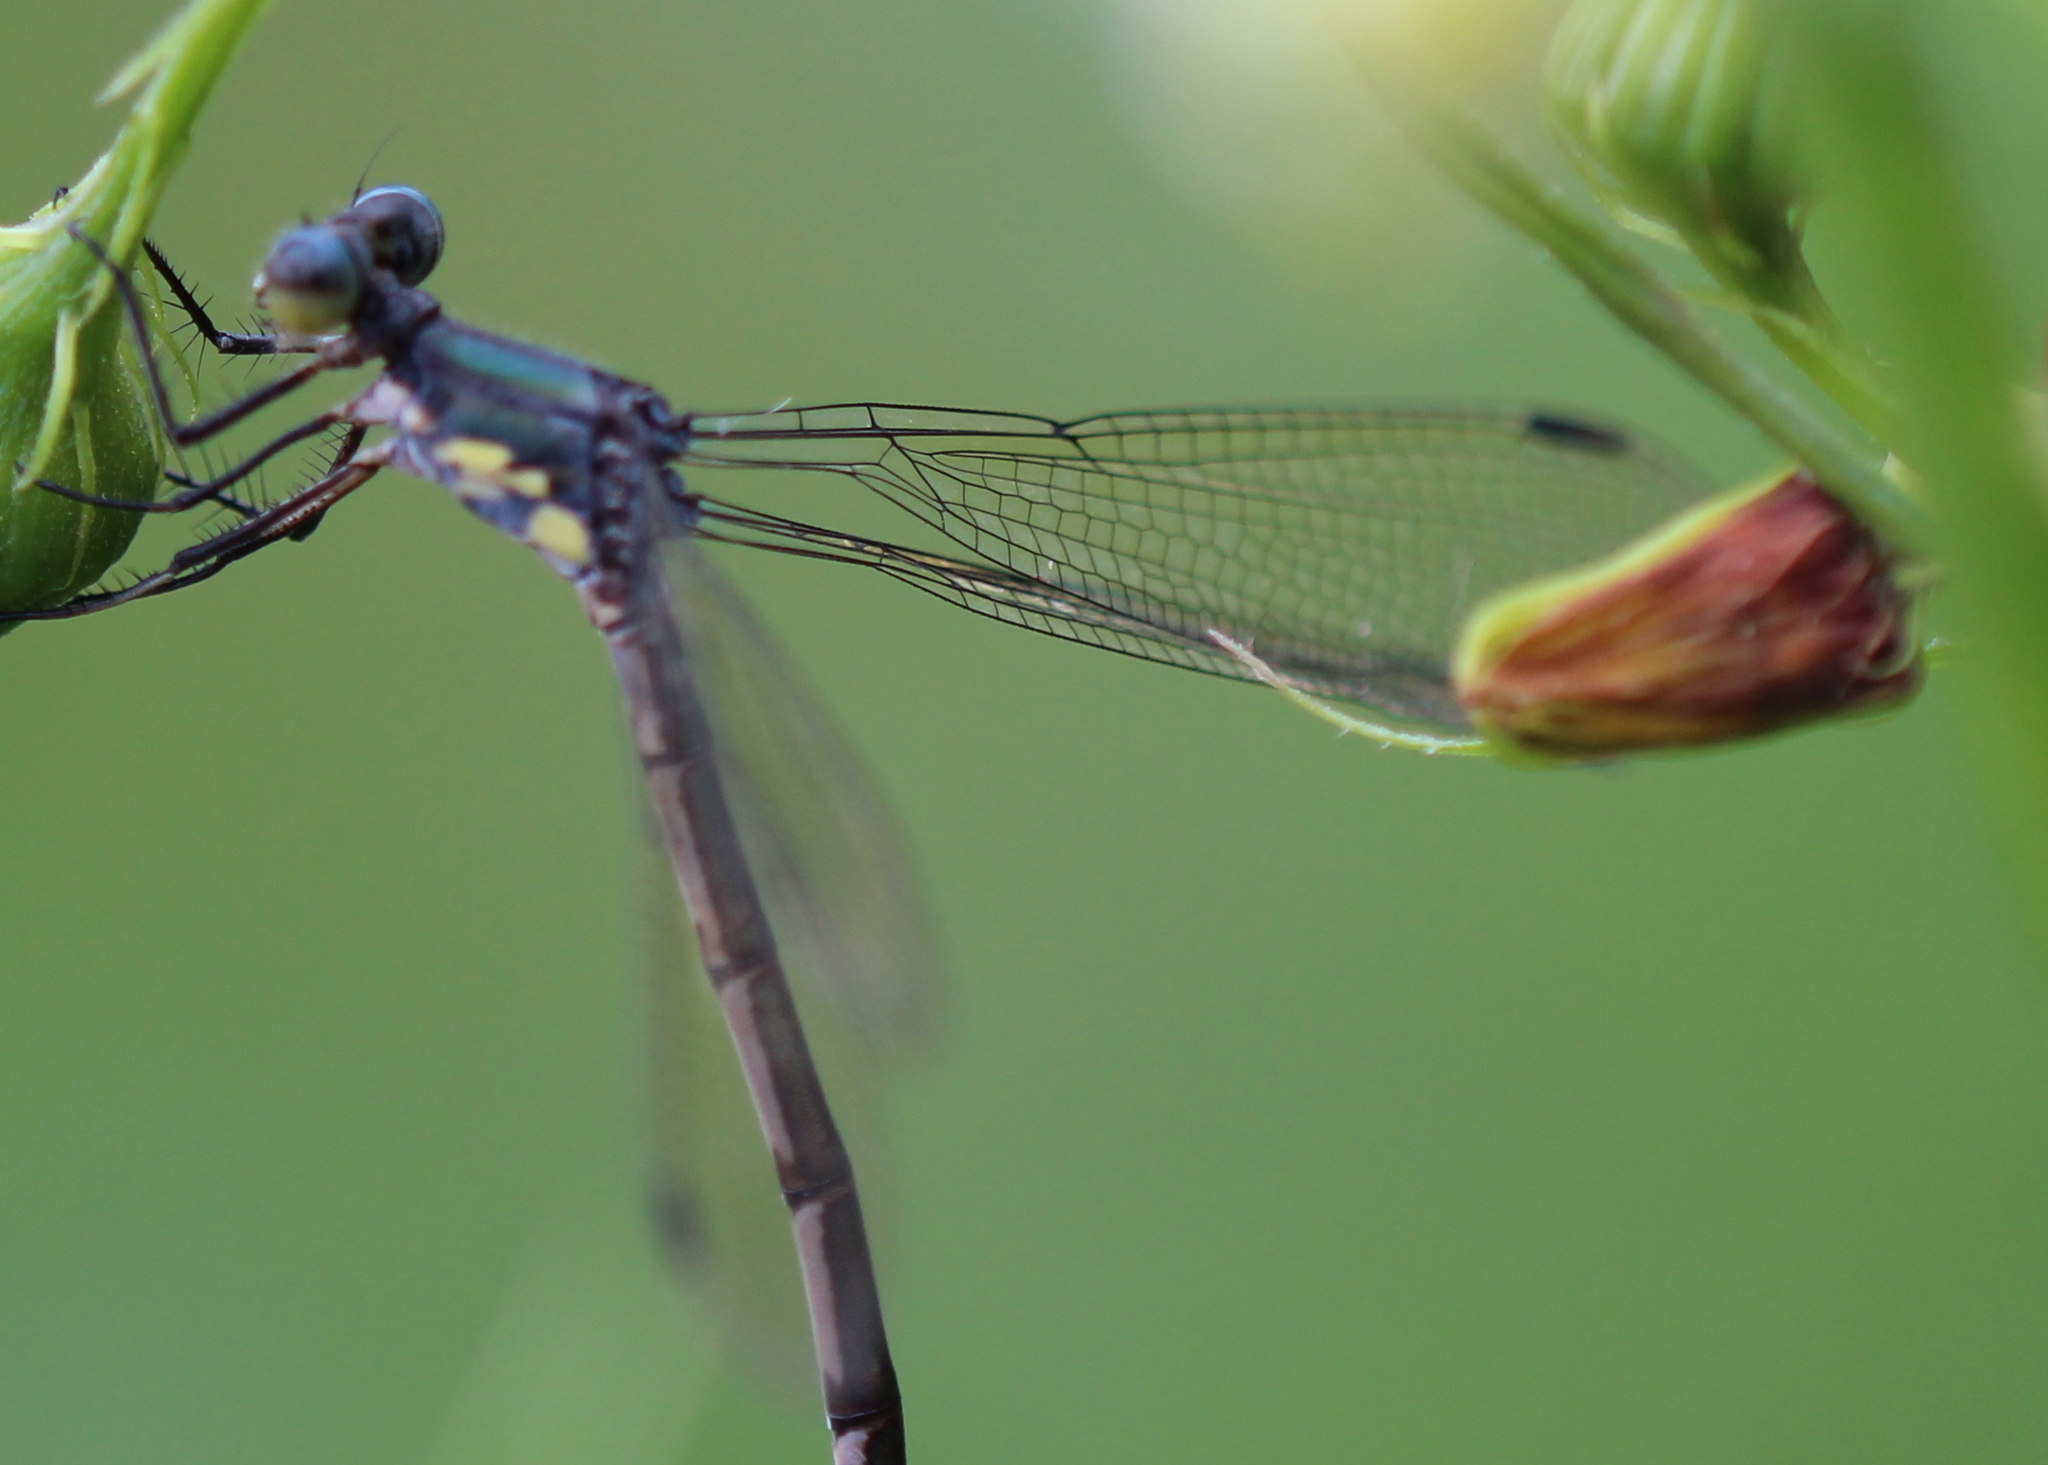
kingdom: Animalia
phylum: Arthropoda
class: Insecta
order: Odonata
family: Lestidae
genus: Lestes
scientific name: Lestes eurinus
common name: Amber-winged spreadwing
